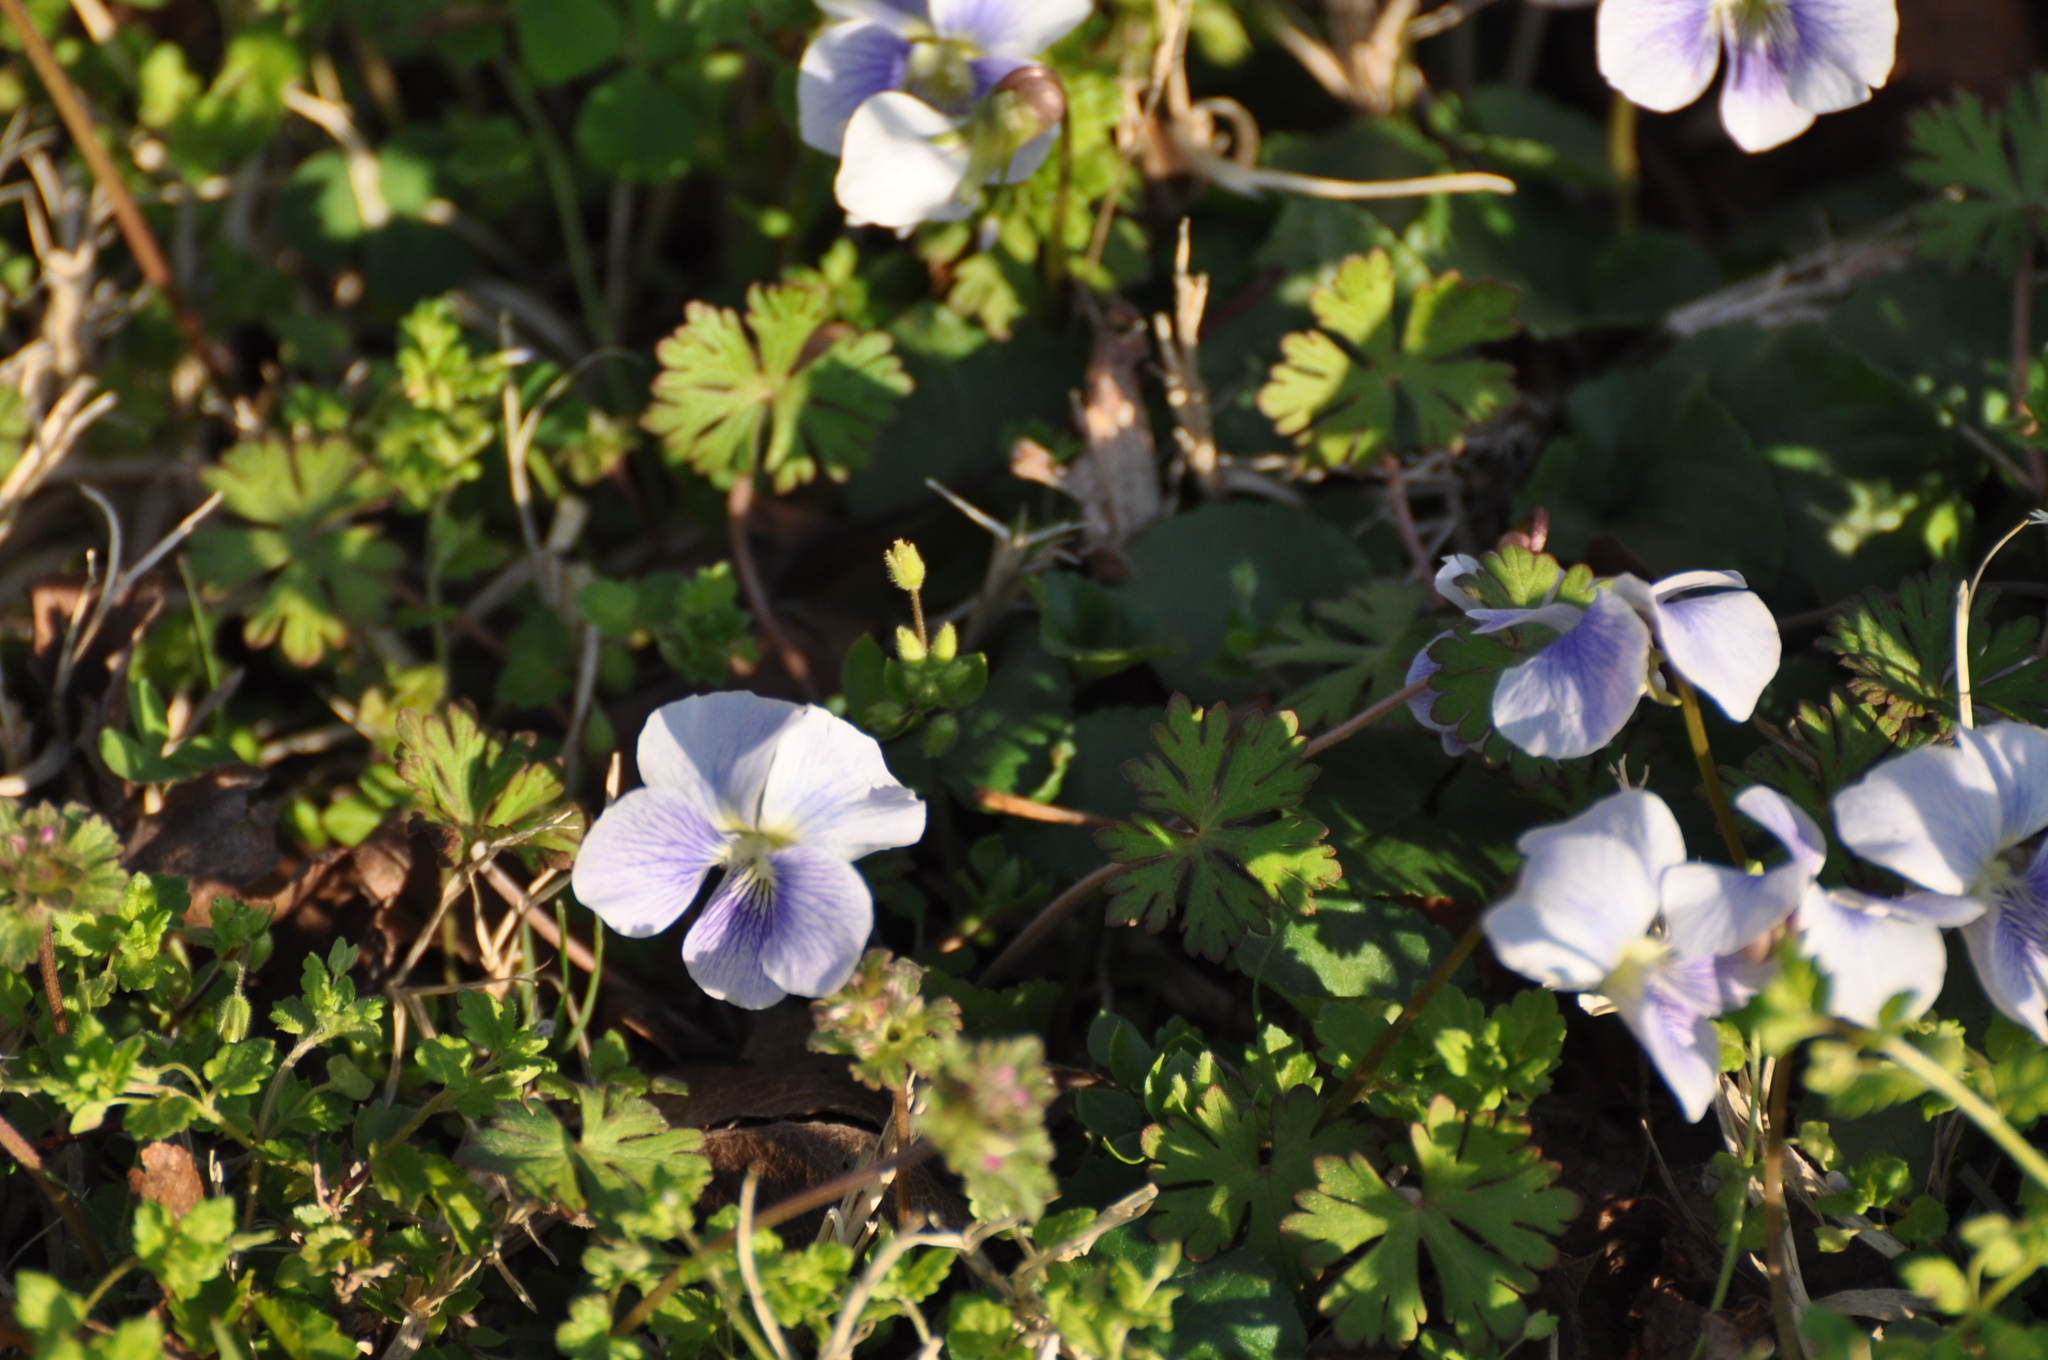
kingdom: Plantae
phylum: Tracheophyta
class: Magnoliopsida
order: Malpighiales
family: Violaceae
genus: Viola
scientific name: Viola sororia
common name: Dooryard violet
